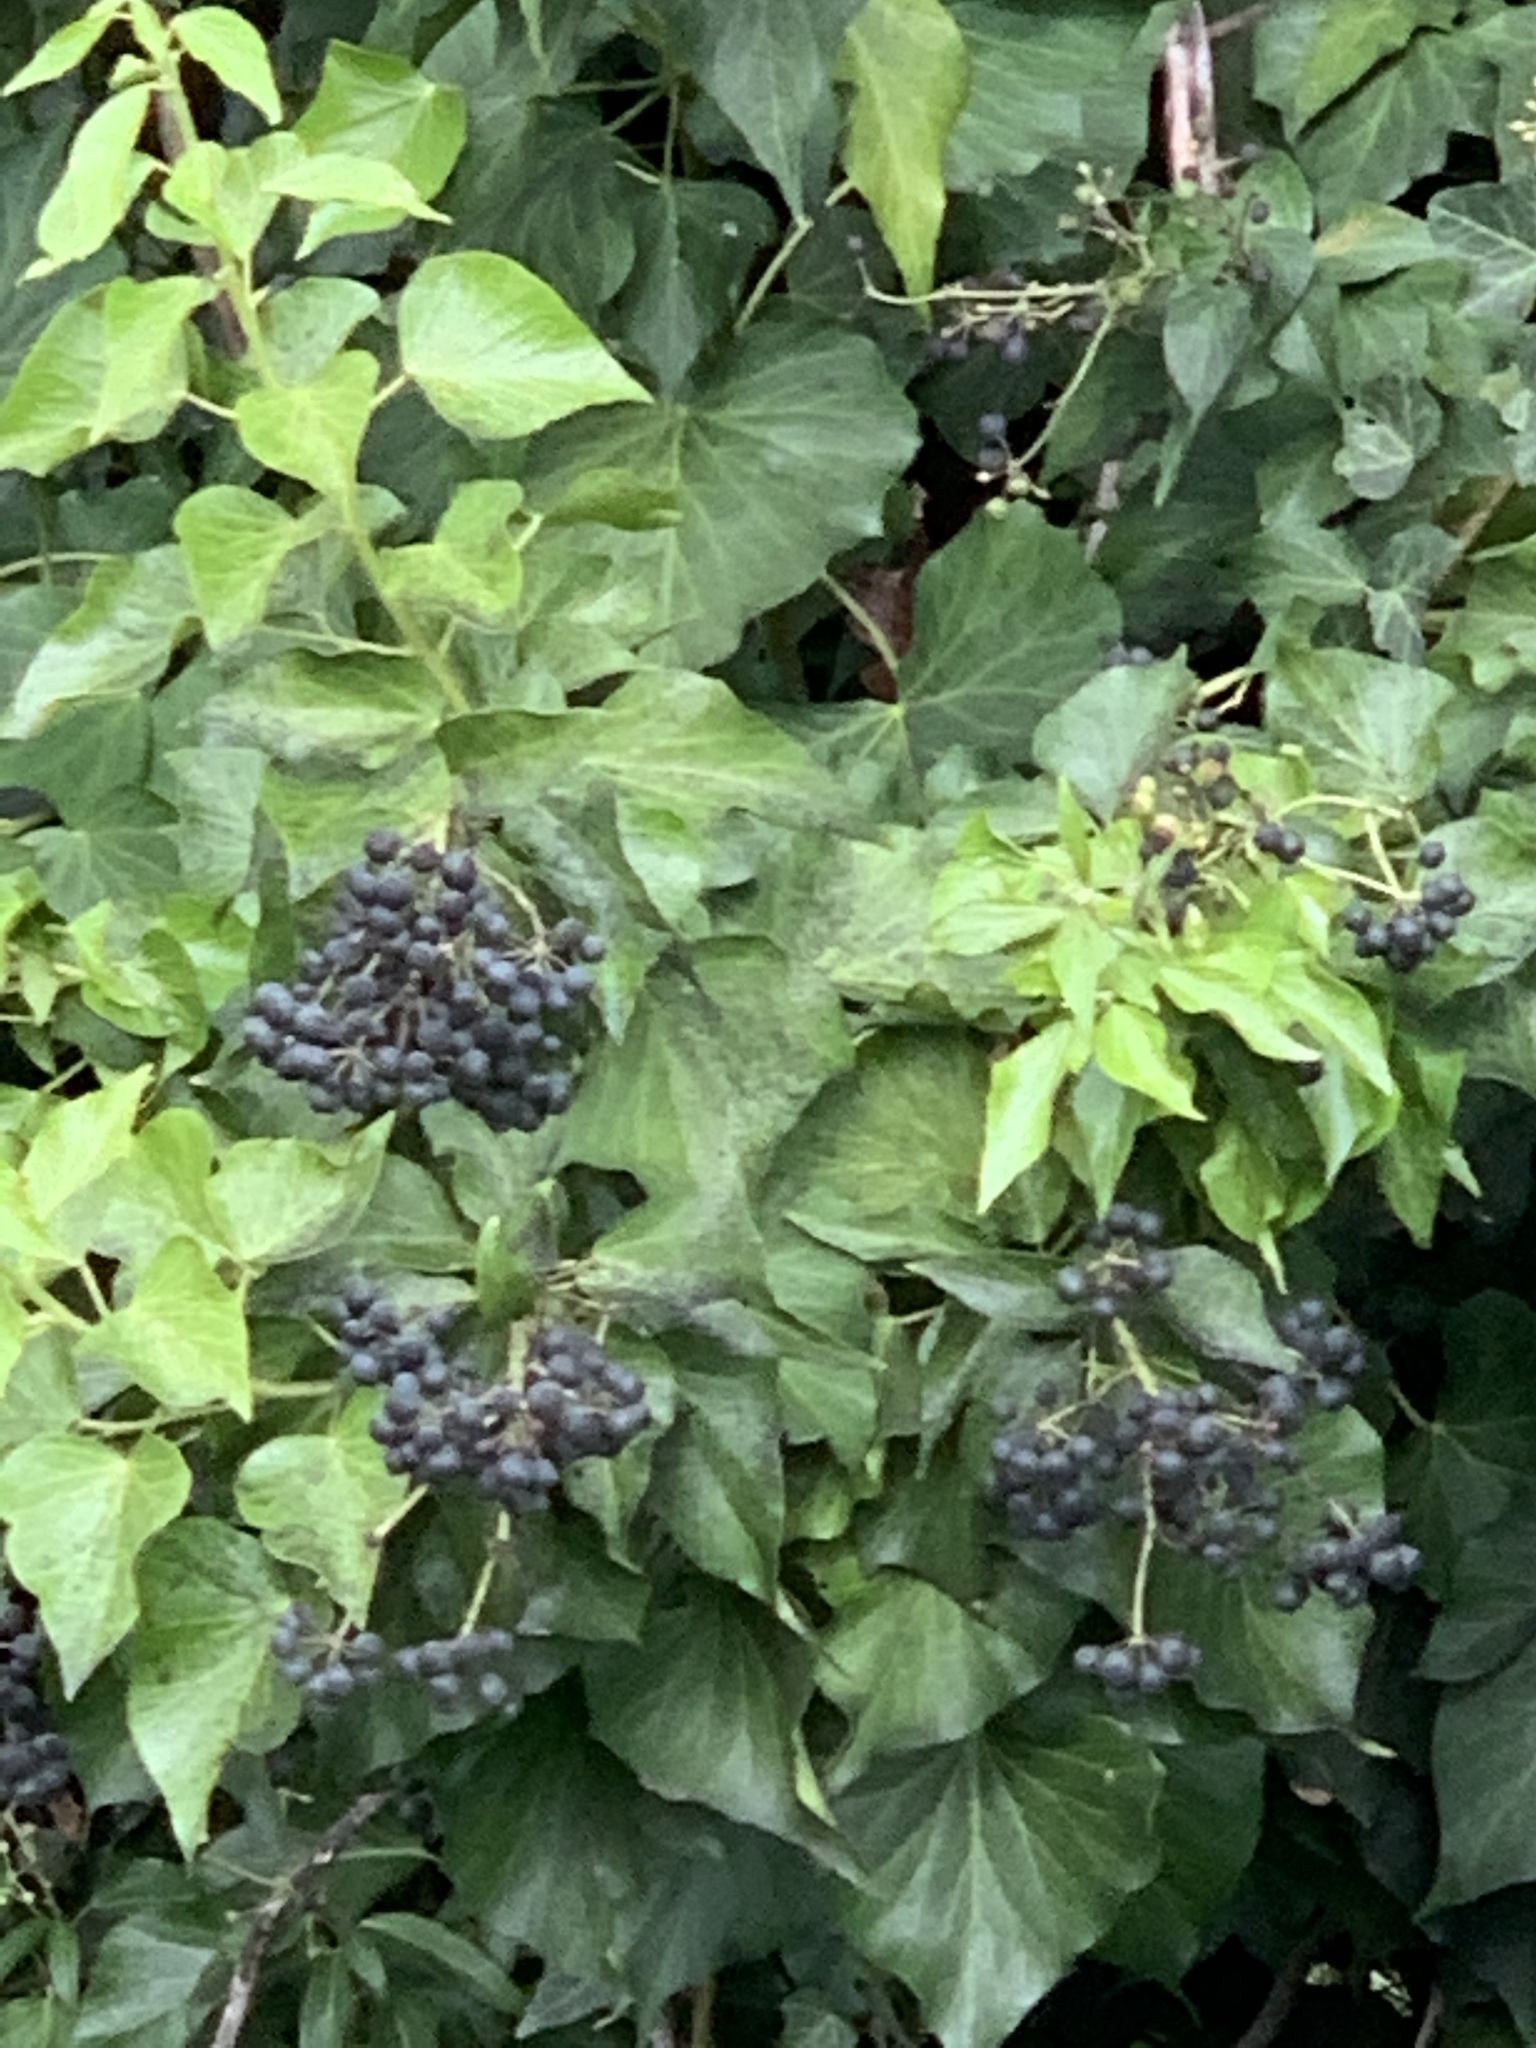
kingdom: Plantae
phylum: Tracheophyta
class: Magnoliopsida
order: Apiales
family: Araliaceae
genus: Hedera
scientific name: Hedera canariensis
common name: Madeira ivy
